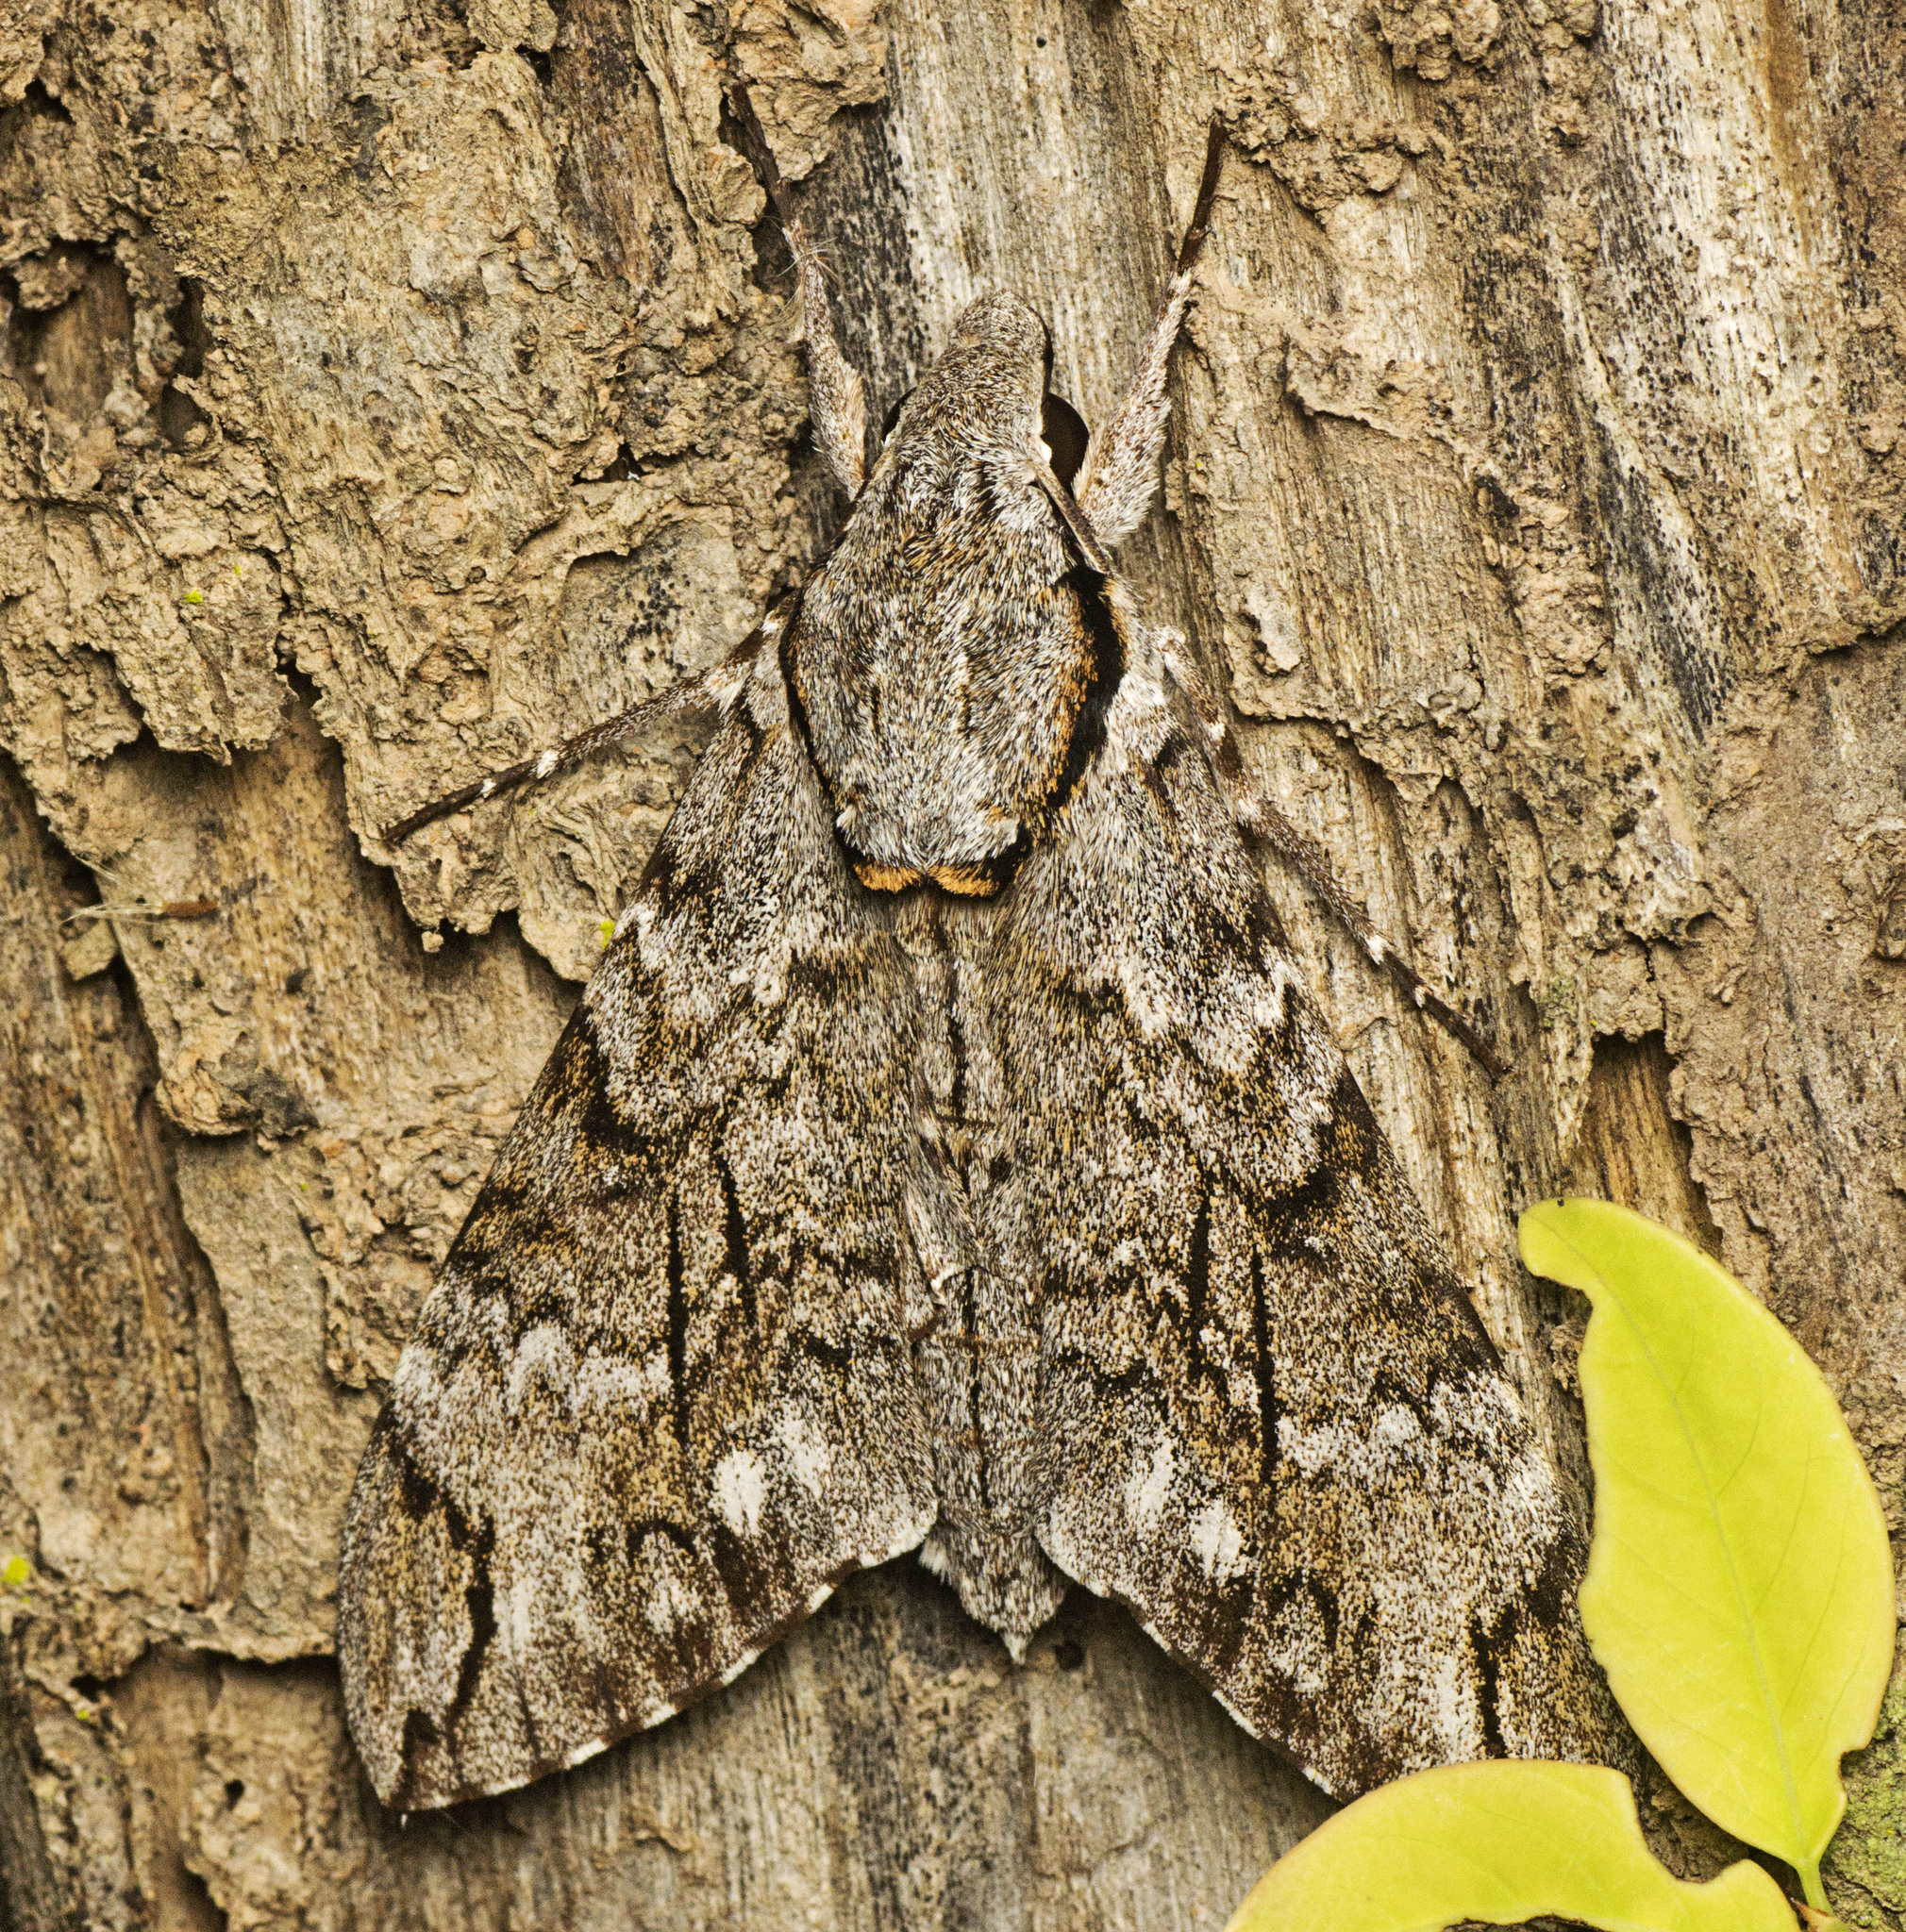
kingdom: Animalia
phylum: Arthropoda
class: Insecta
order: Lepidoptera
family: Sphingidae
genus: Psilogramma
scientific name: Psilogramma casuarinae
